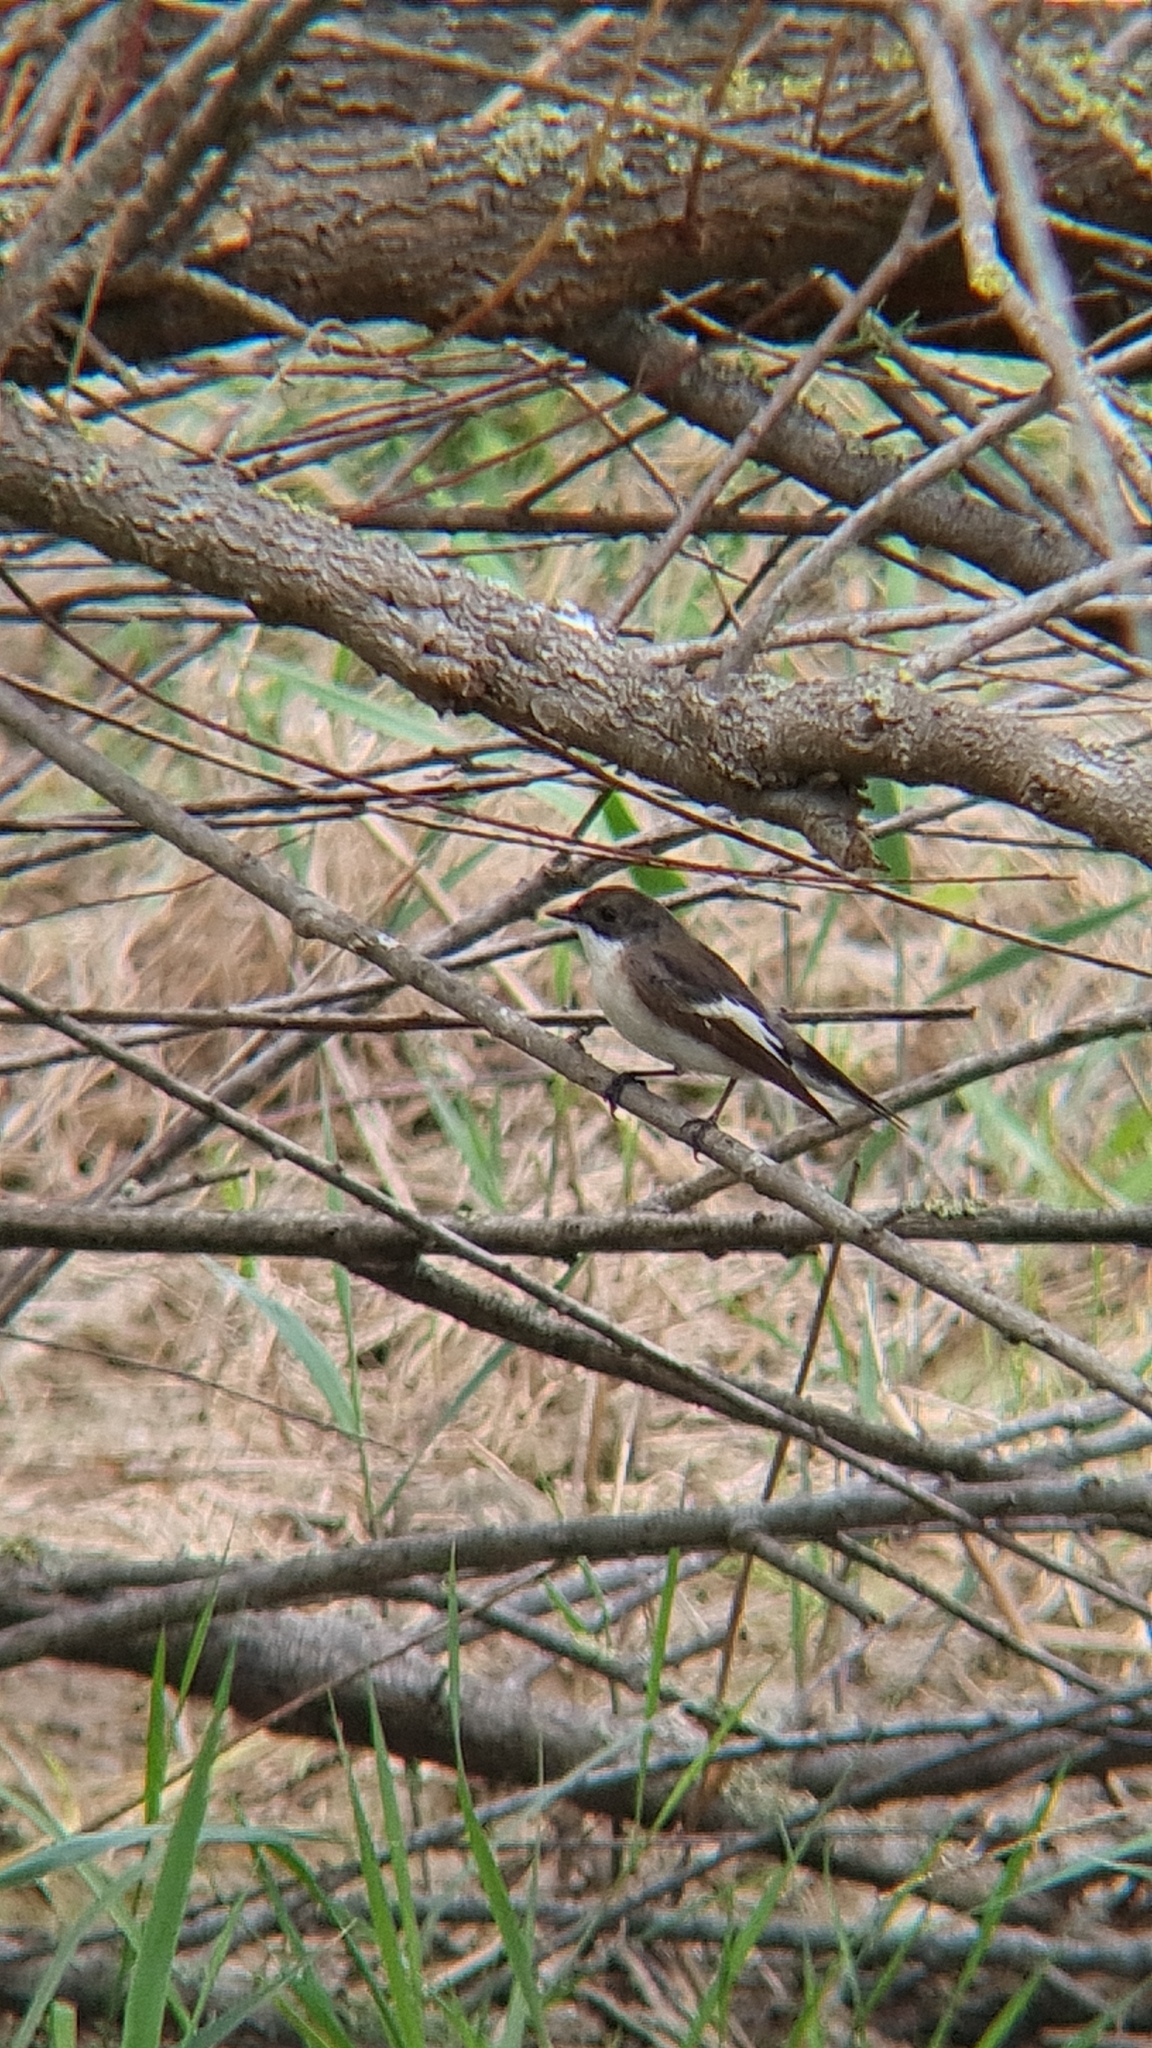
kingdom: Animalia
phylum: Chordata
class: Aves
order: Passeriformes
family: Muscicapidae
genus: Ficedula
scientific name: Ficedula hypoleuca
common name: European pied flycatcher
